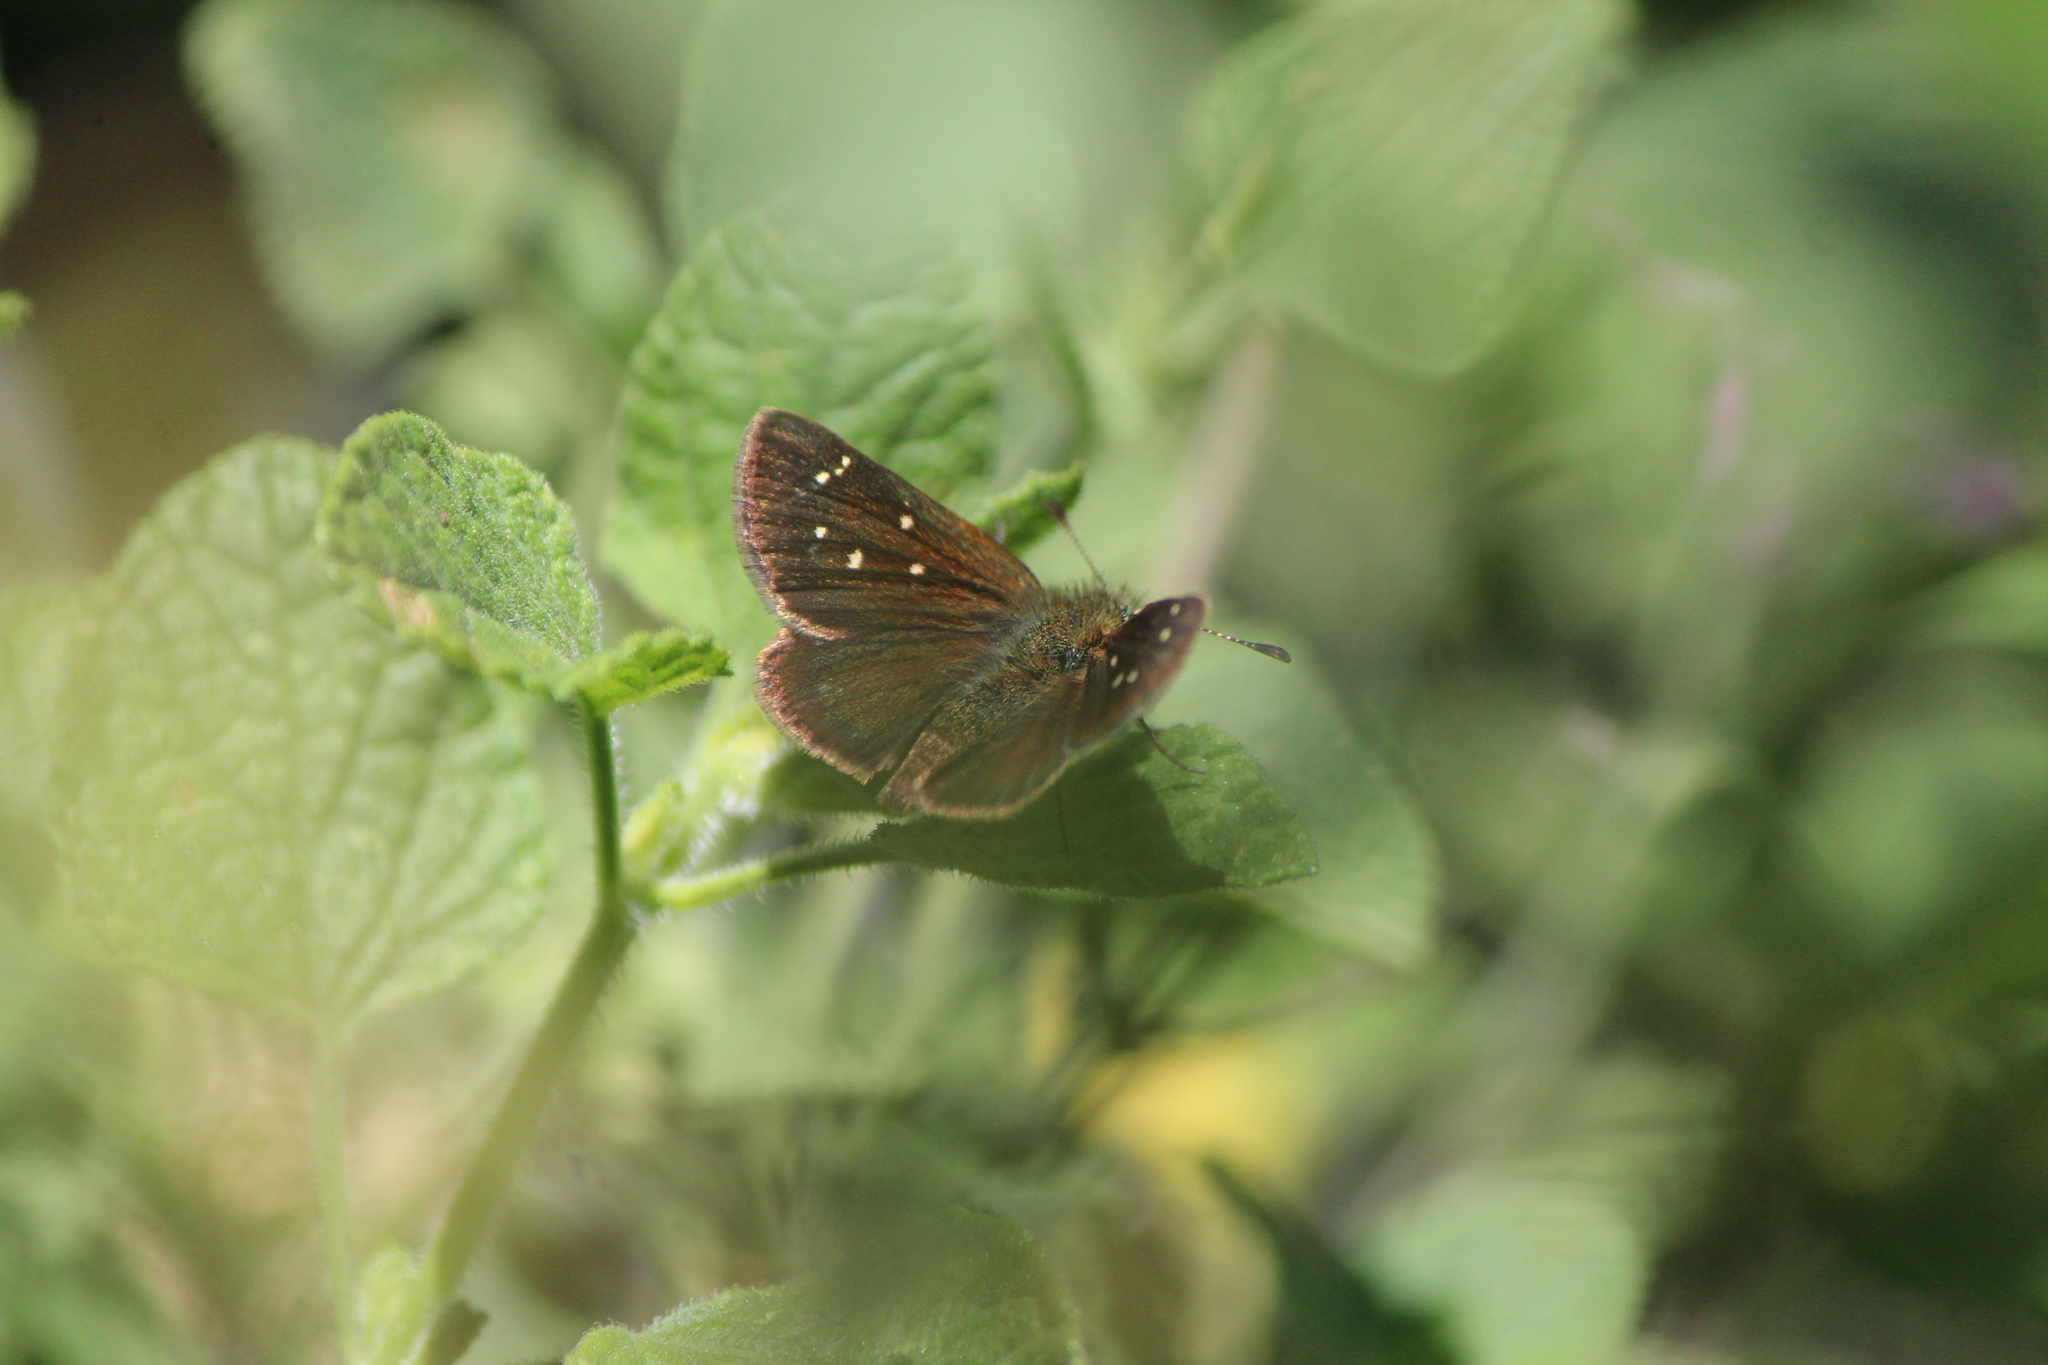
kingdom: Animalia
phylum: Arthropoda
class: Insecta
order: Lepidoptera
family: Hesperiidae
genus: Piruna
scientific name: Piruna cyclosticta
